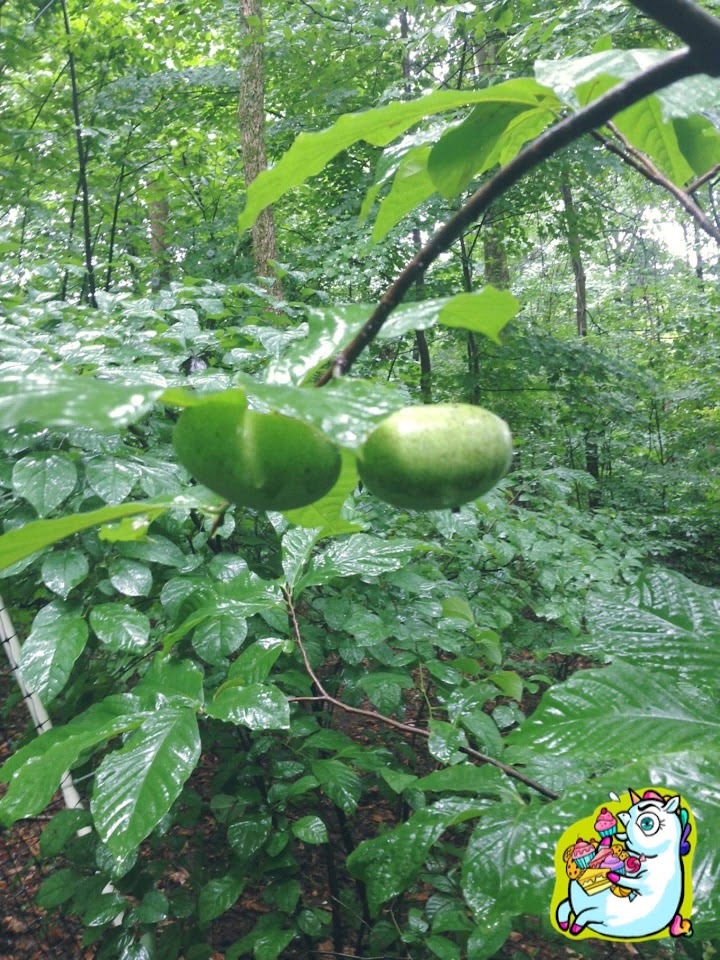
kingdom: Plantae
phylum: Tracheophyta
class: Magnoliopsida
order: Magnoliales
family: Annonaceae
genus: Asimina
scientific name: Asimina triloba
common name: Dog-banana
